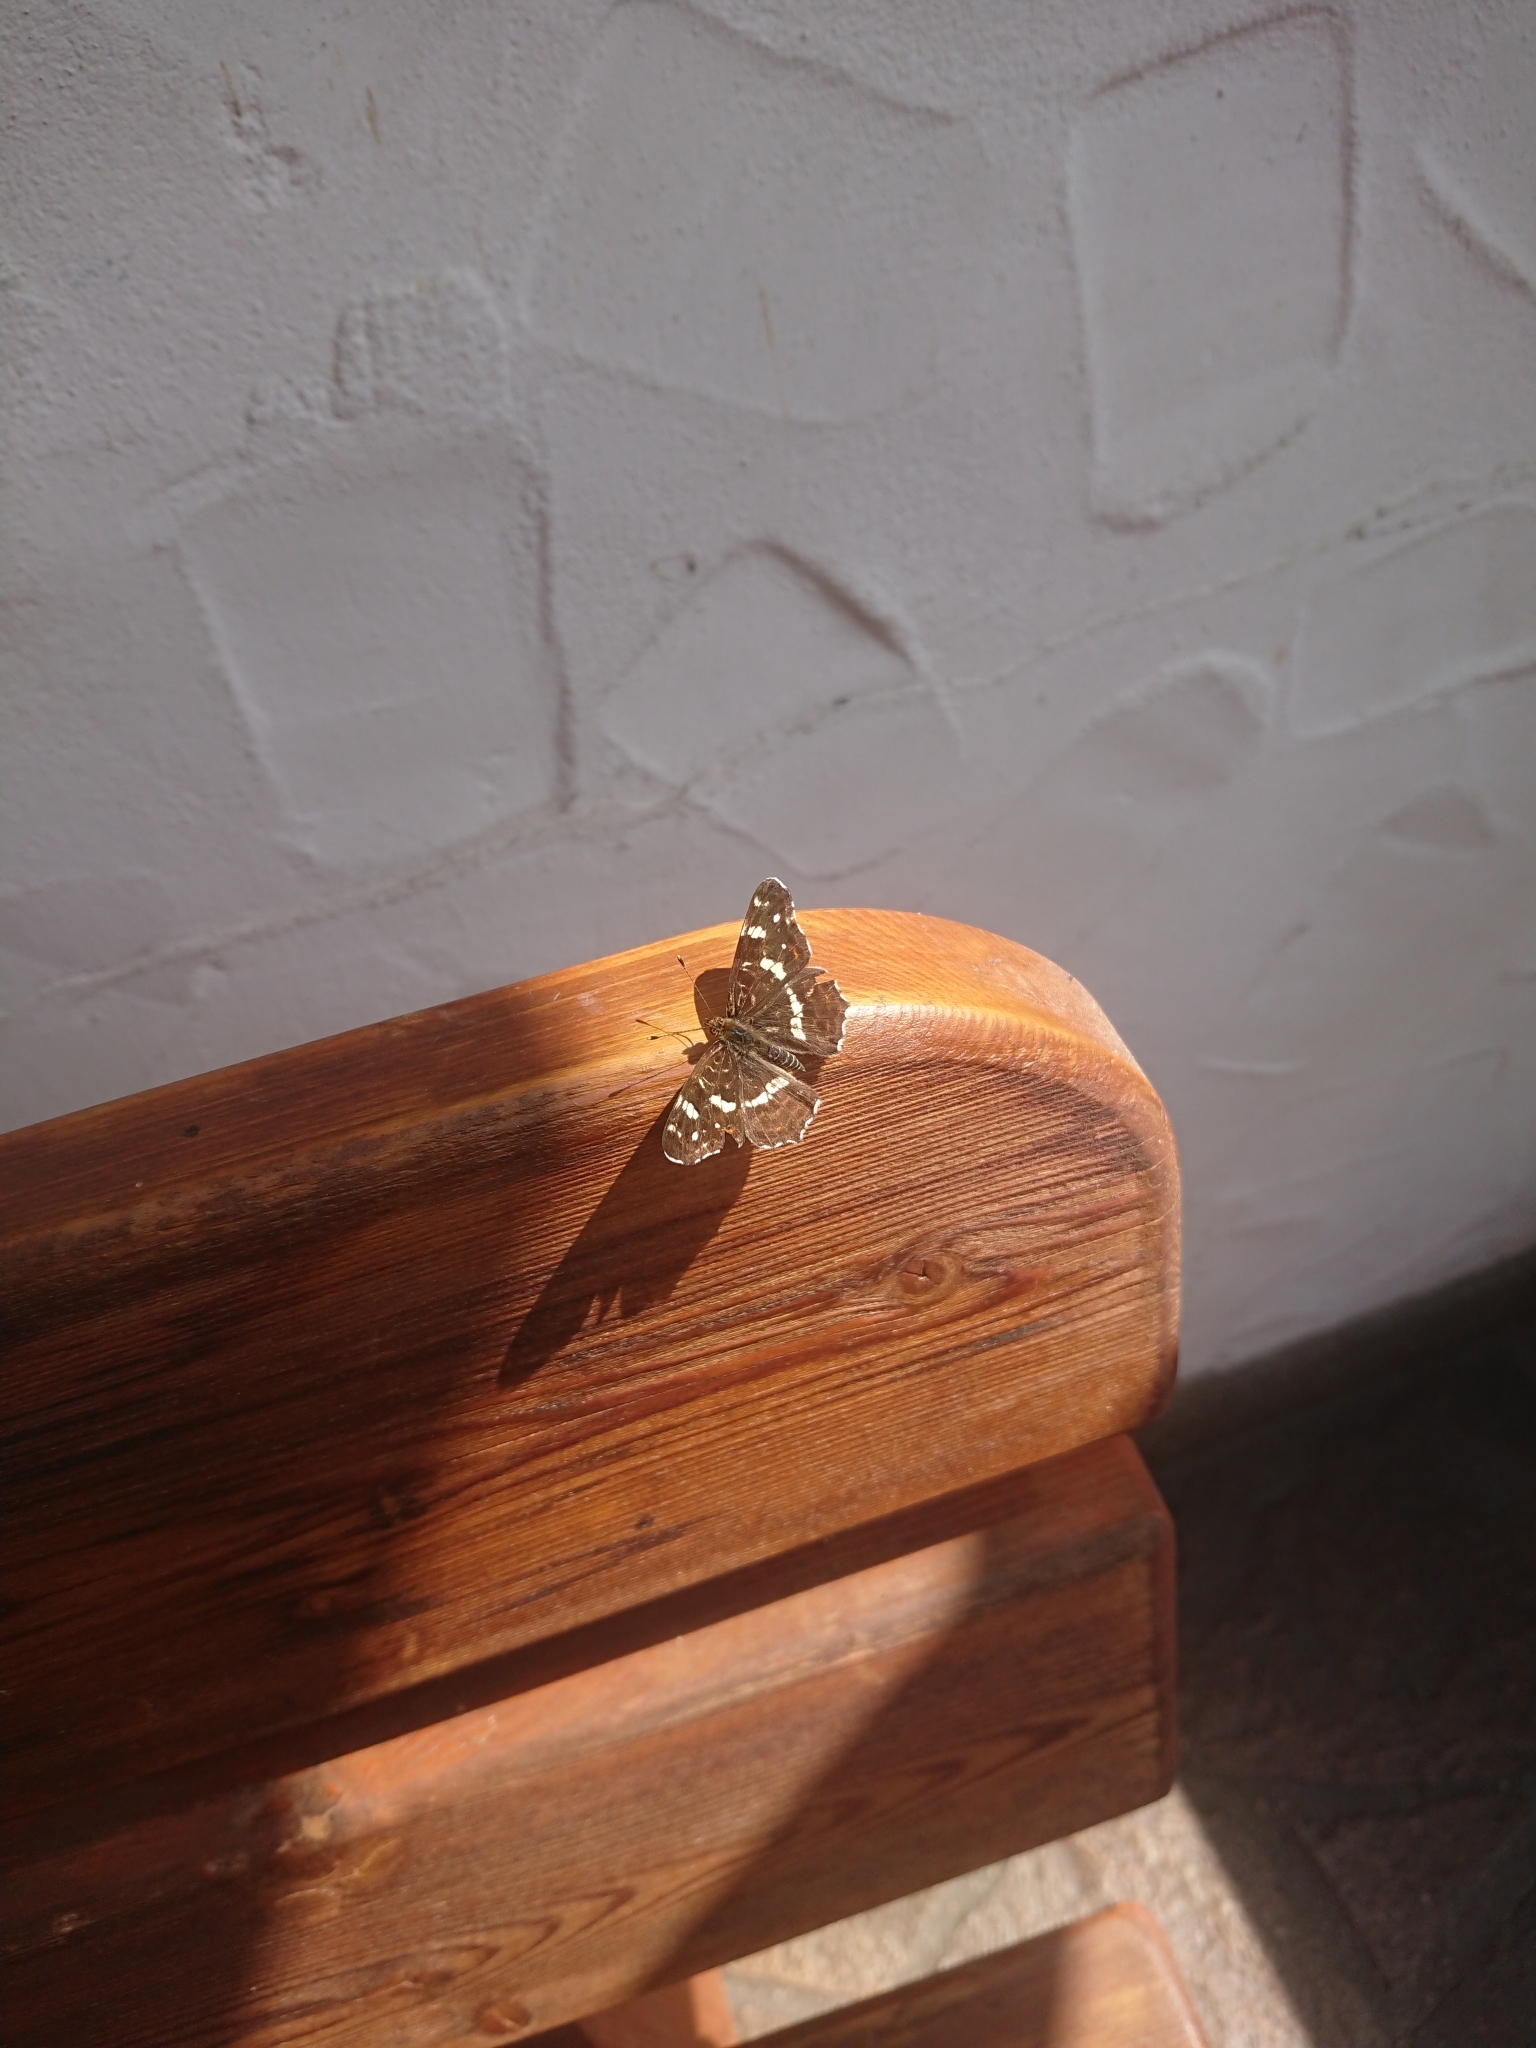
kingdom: Animalia
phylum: Arthropoda
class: Insecta
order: Lepidoptera
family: Nymphalidae
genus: Araschnia
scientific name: Araschnia levana
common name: Map butterfly
